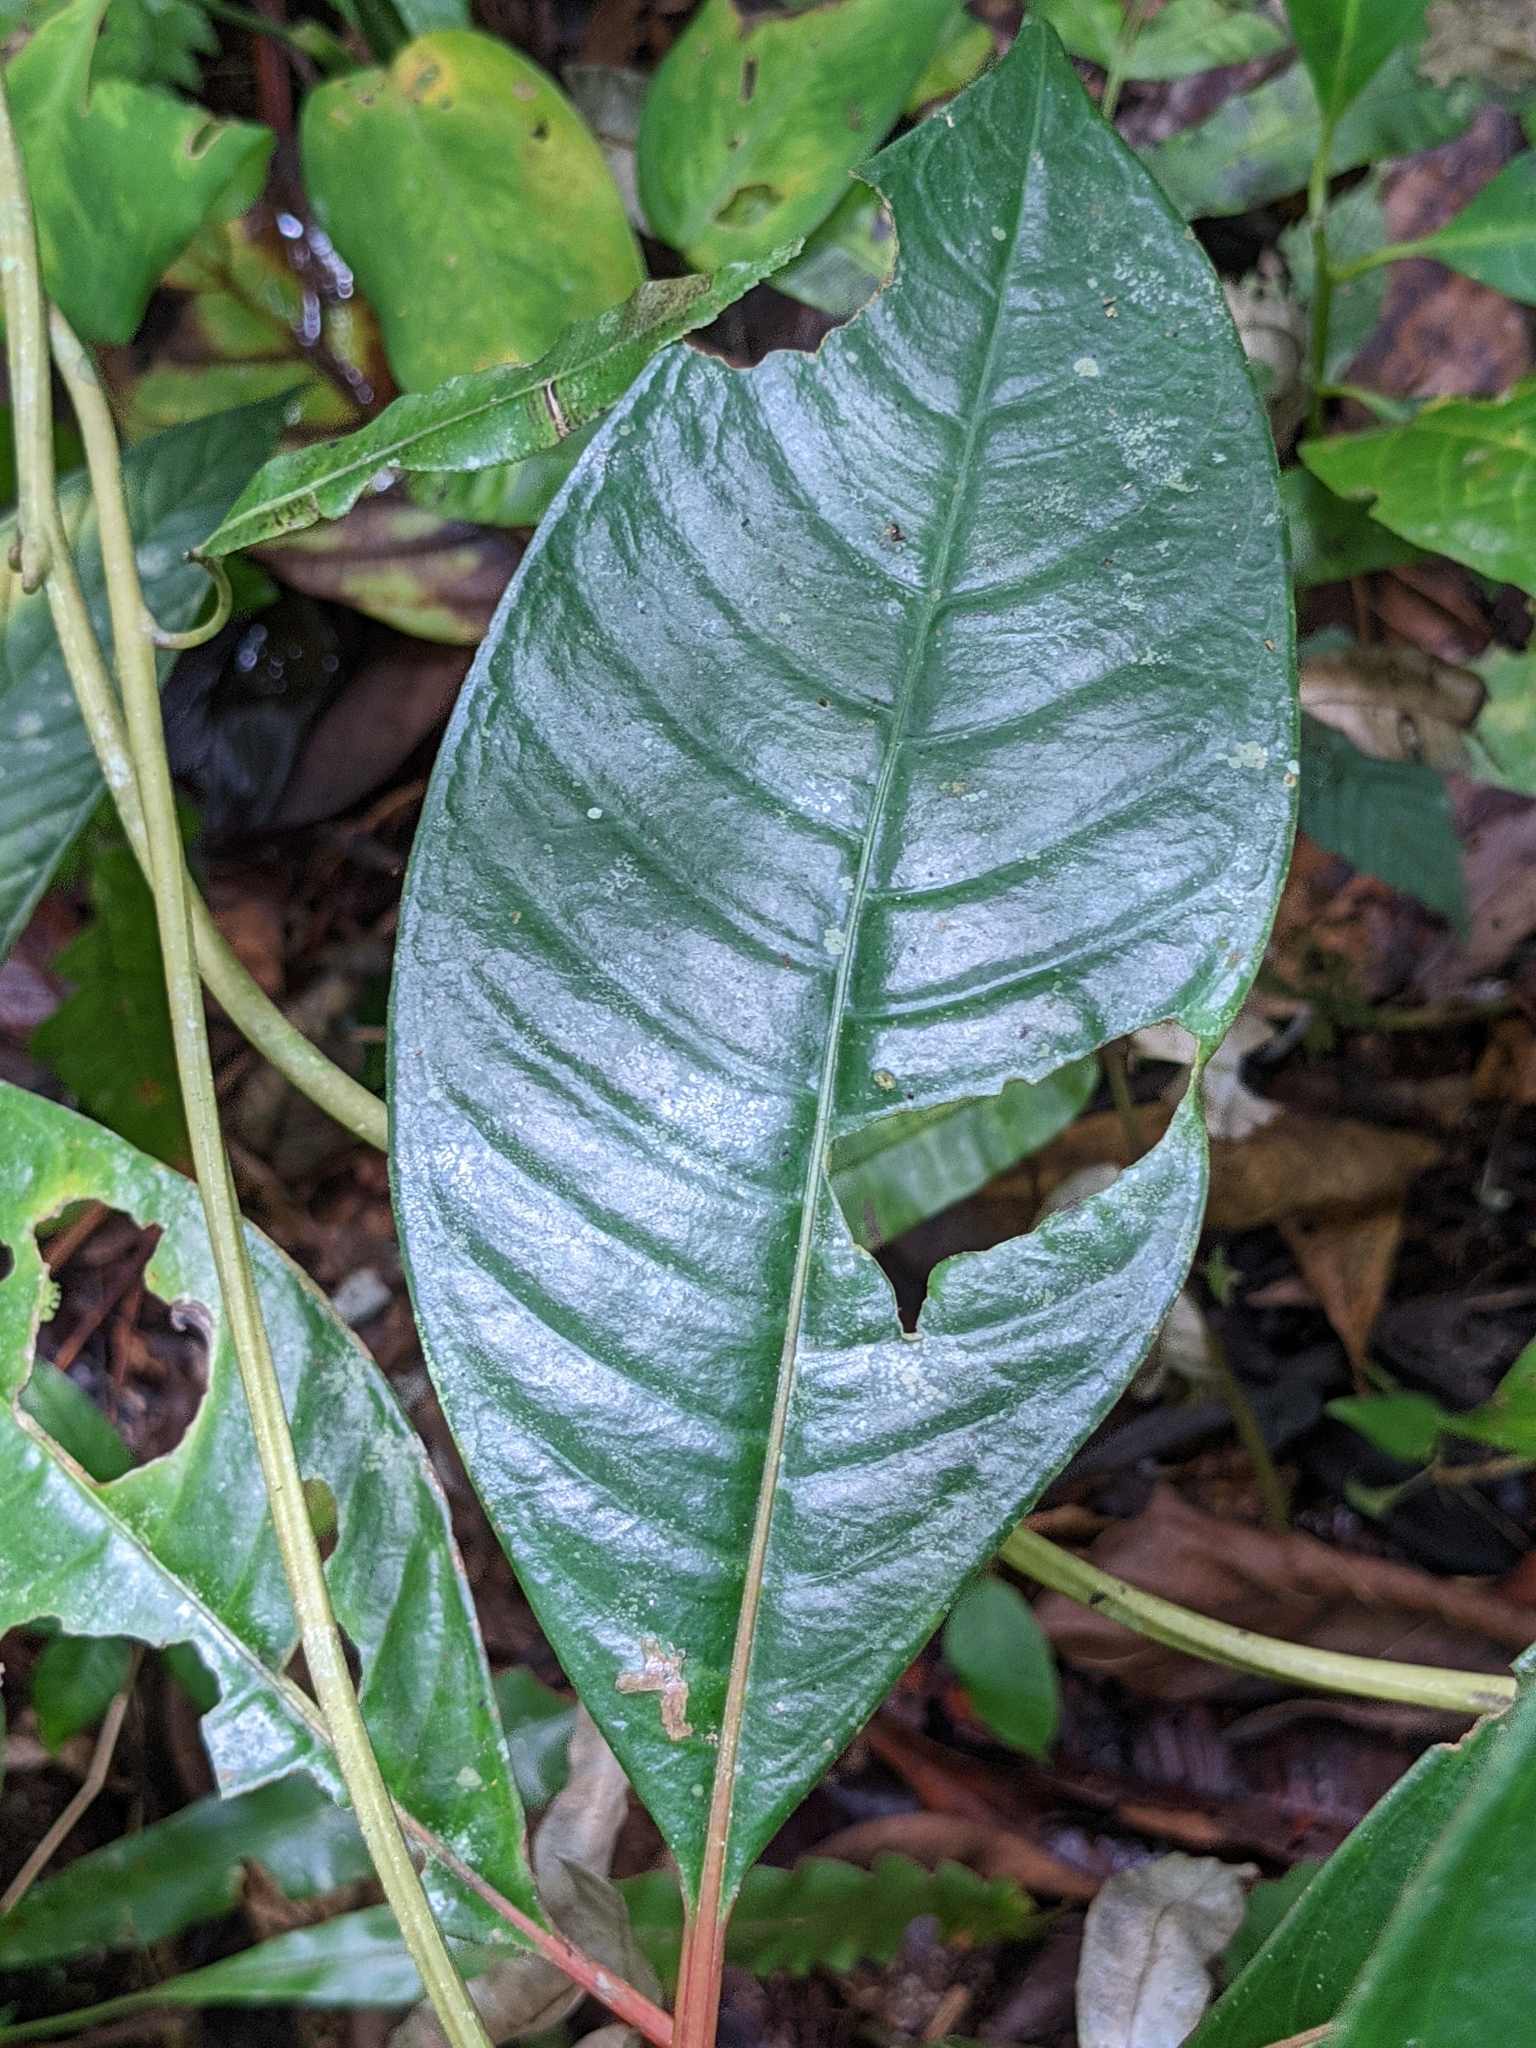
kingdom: Plantae
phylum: Tracheophyta
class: Magnoliopsida
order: Gentianales
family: Rubiaceae
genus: Notopleura
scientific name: Notopleura uliginosa
